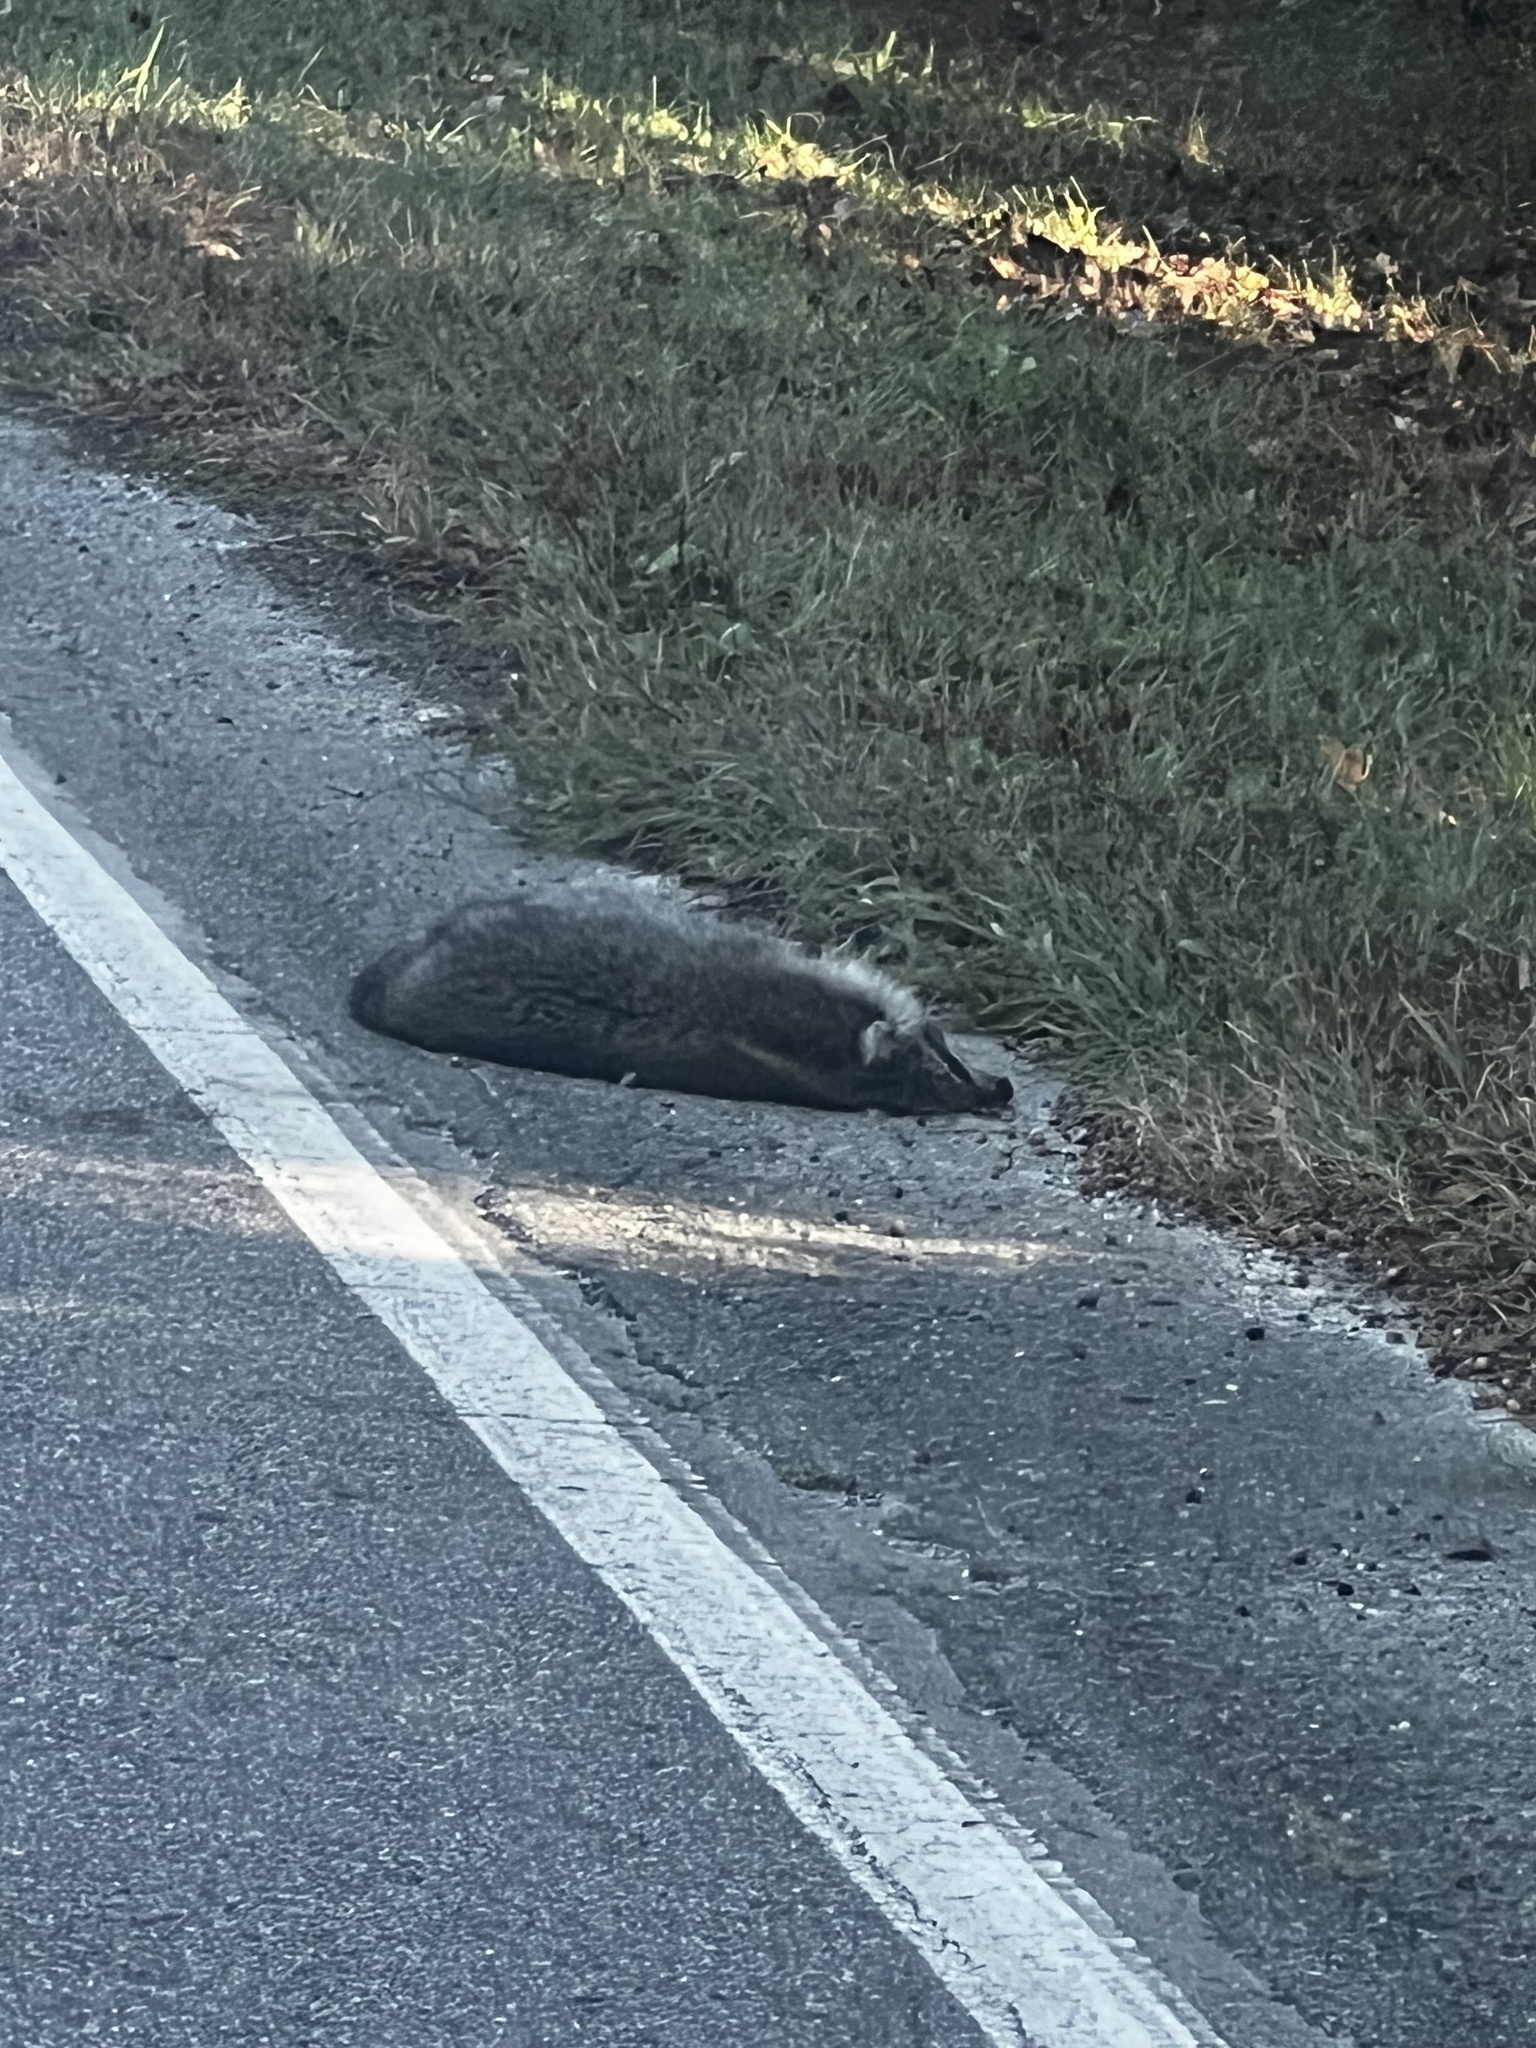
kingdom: Animalia
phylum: Chordata
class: Mammalia
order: Carnivora
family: Procyonidae
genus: Procyon
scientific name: Procyon lotor
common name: Raccoon
